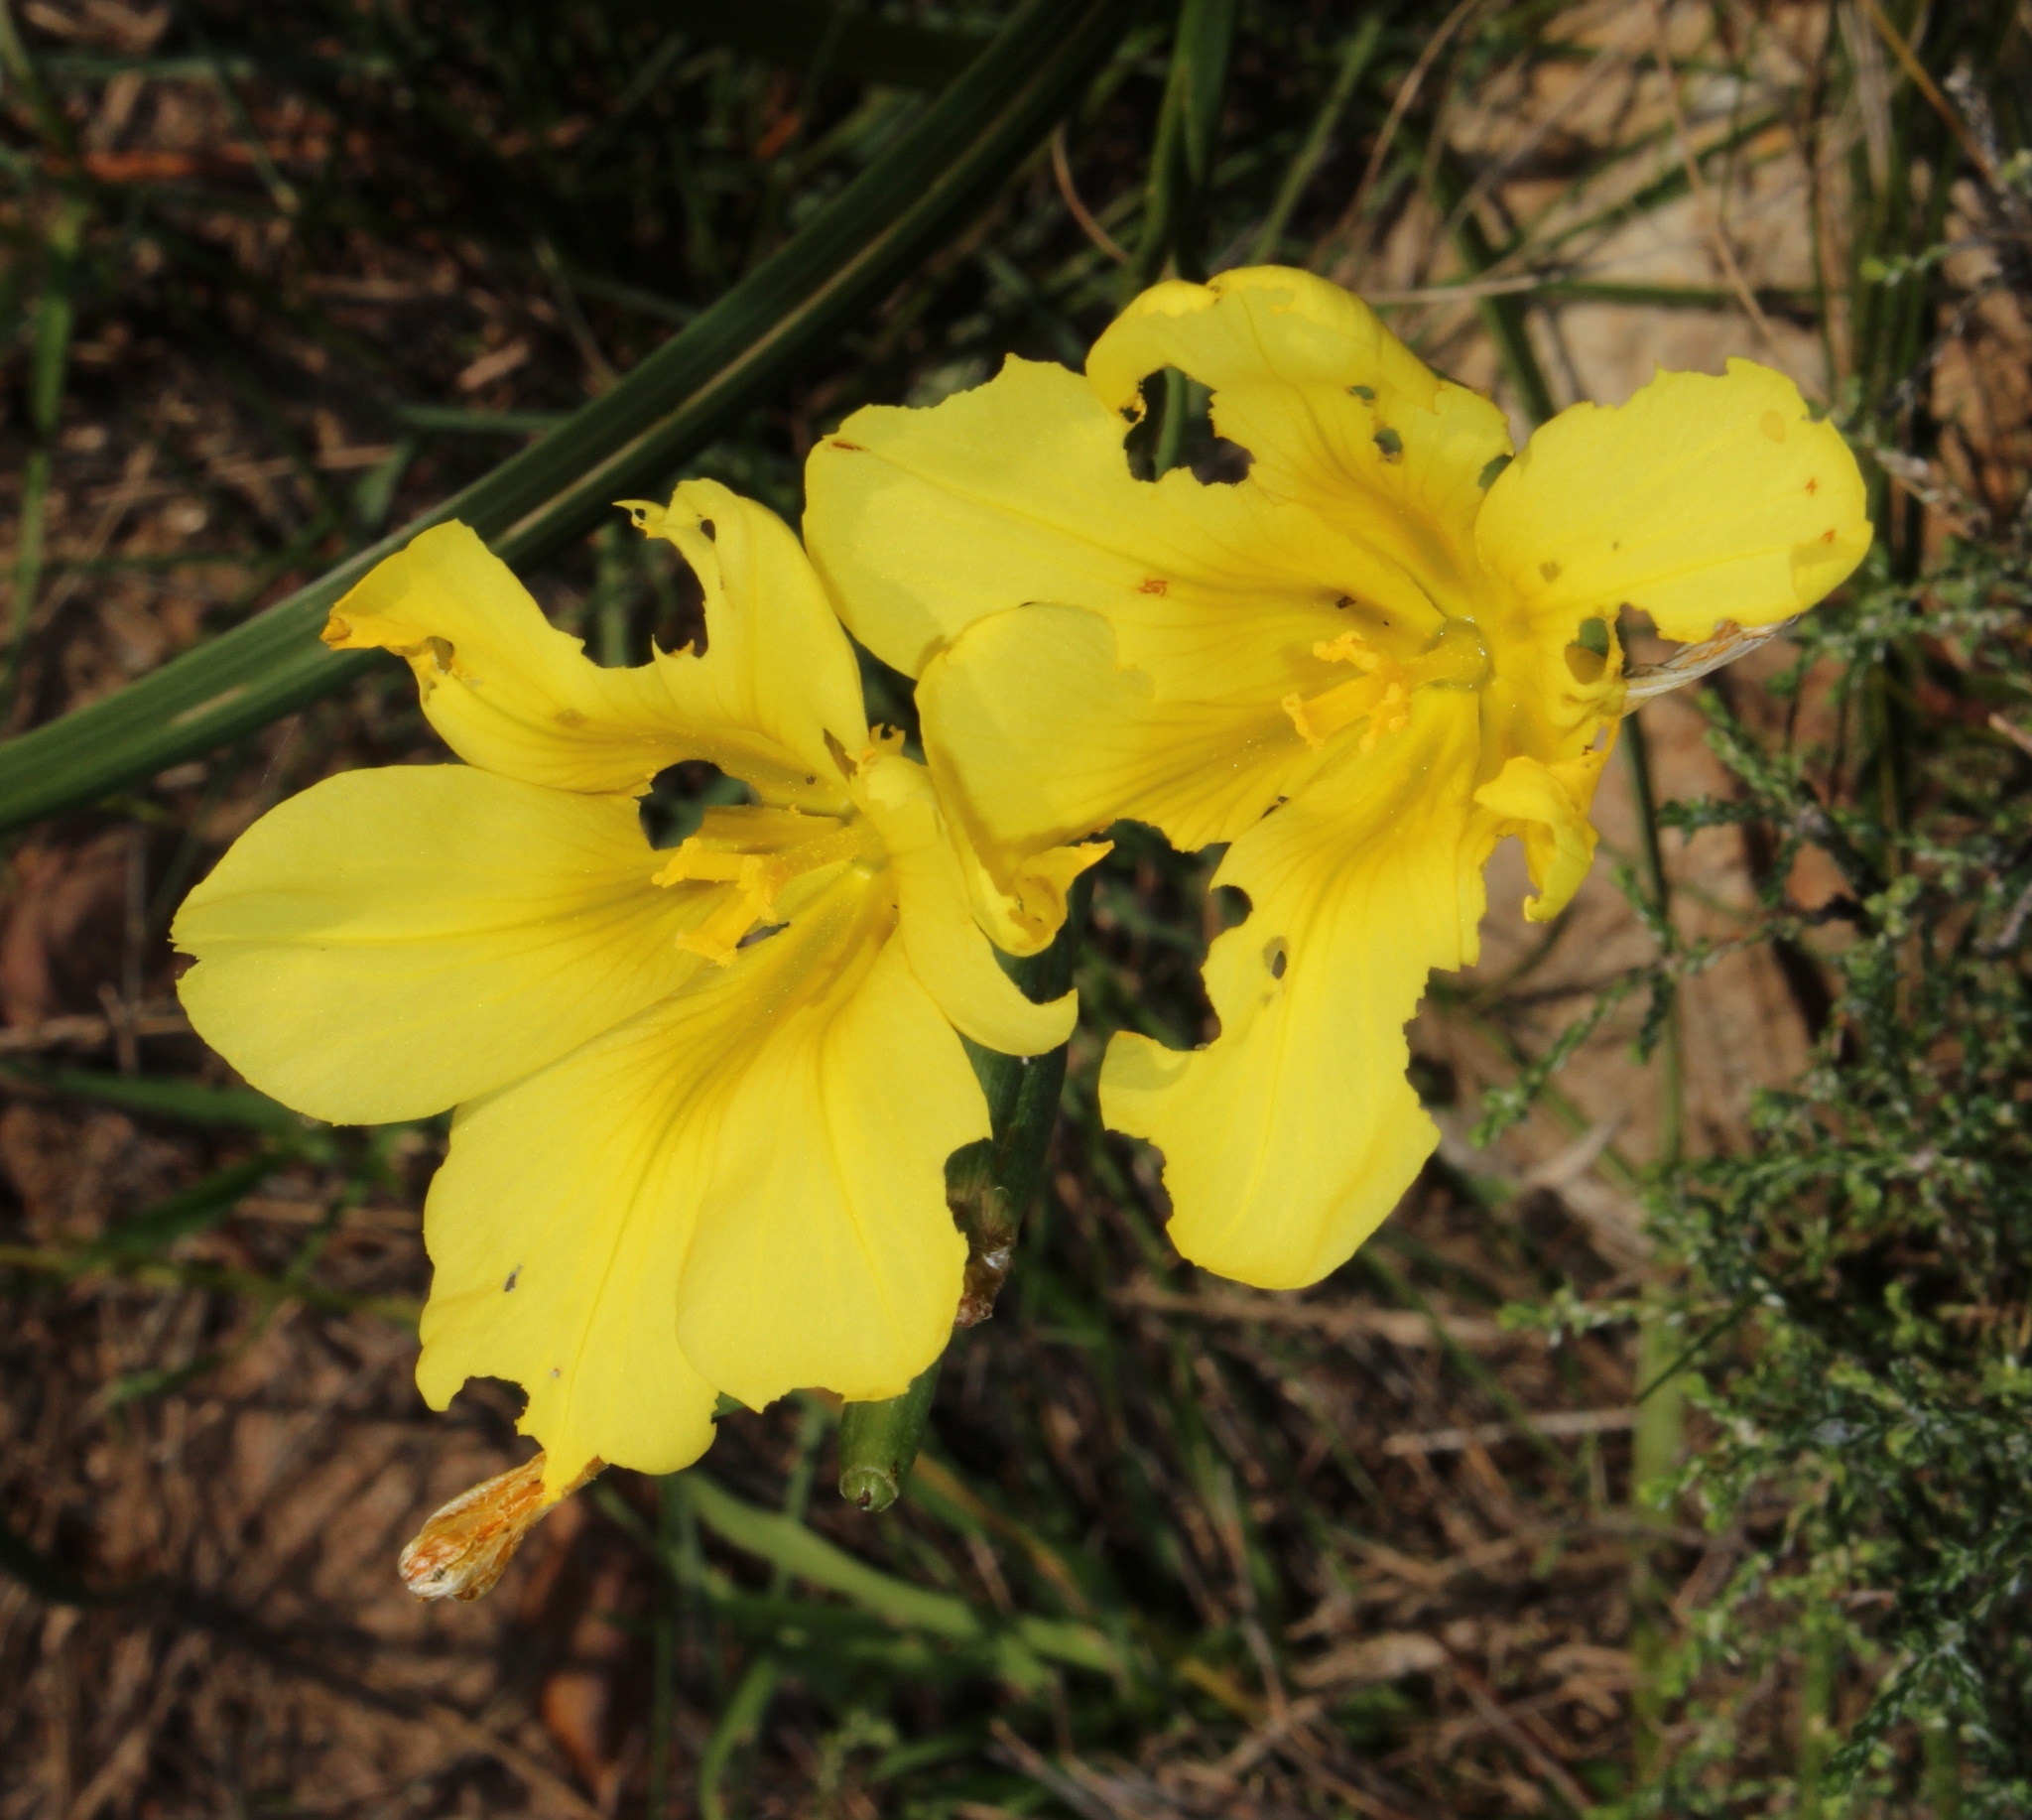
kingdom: Plantae
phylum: Tracheophyta
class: Liliopsida
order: Asparagales
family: Iridaceae
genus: Moraea
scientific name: Moraea ochroleuca
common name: Red tulp
